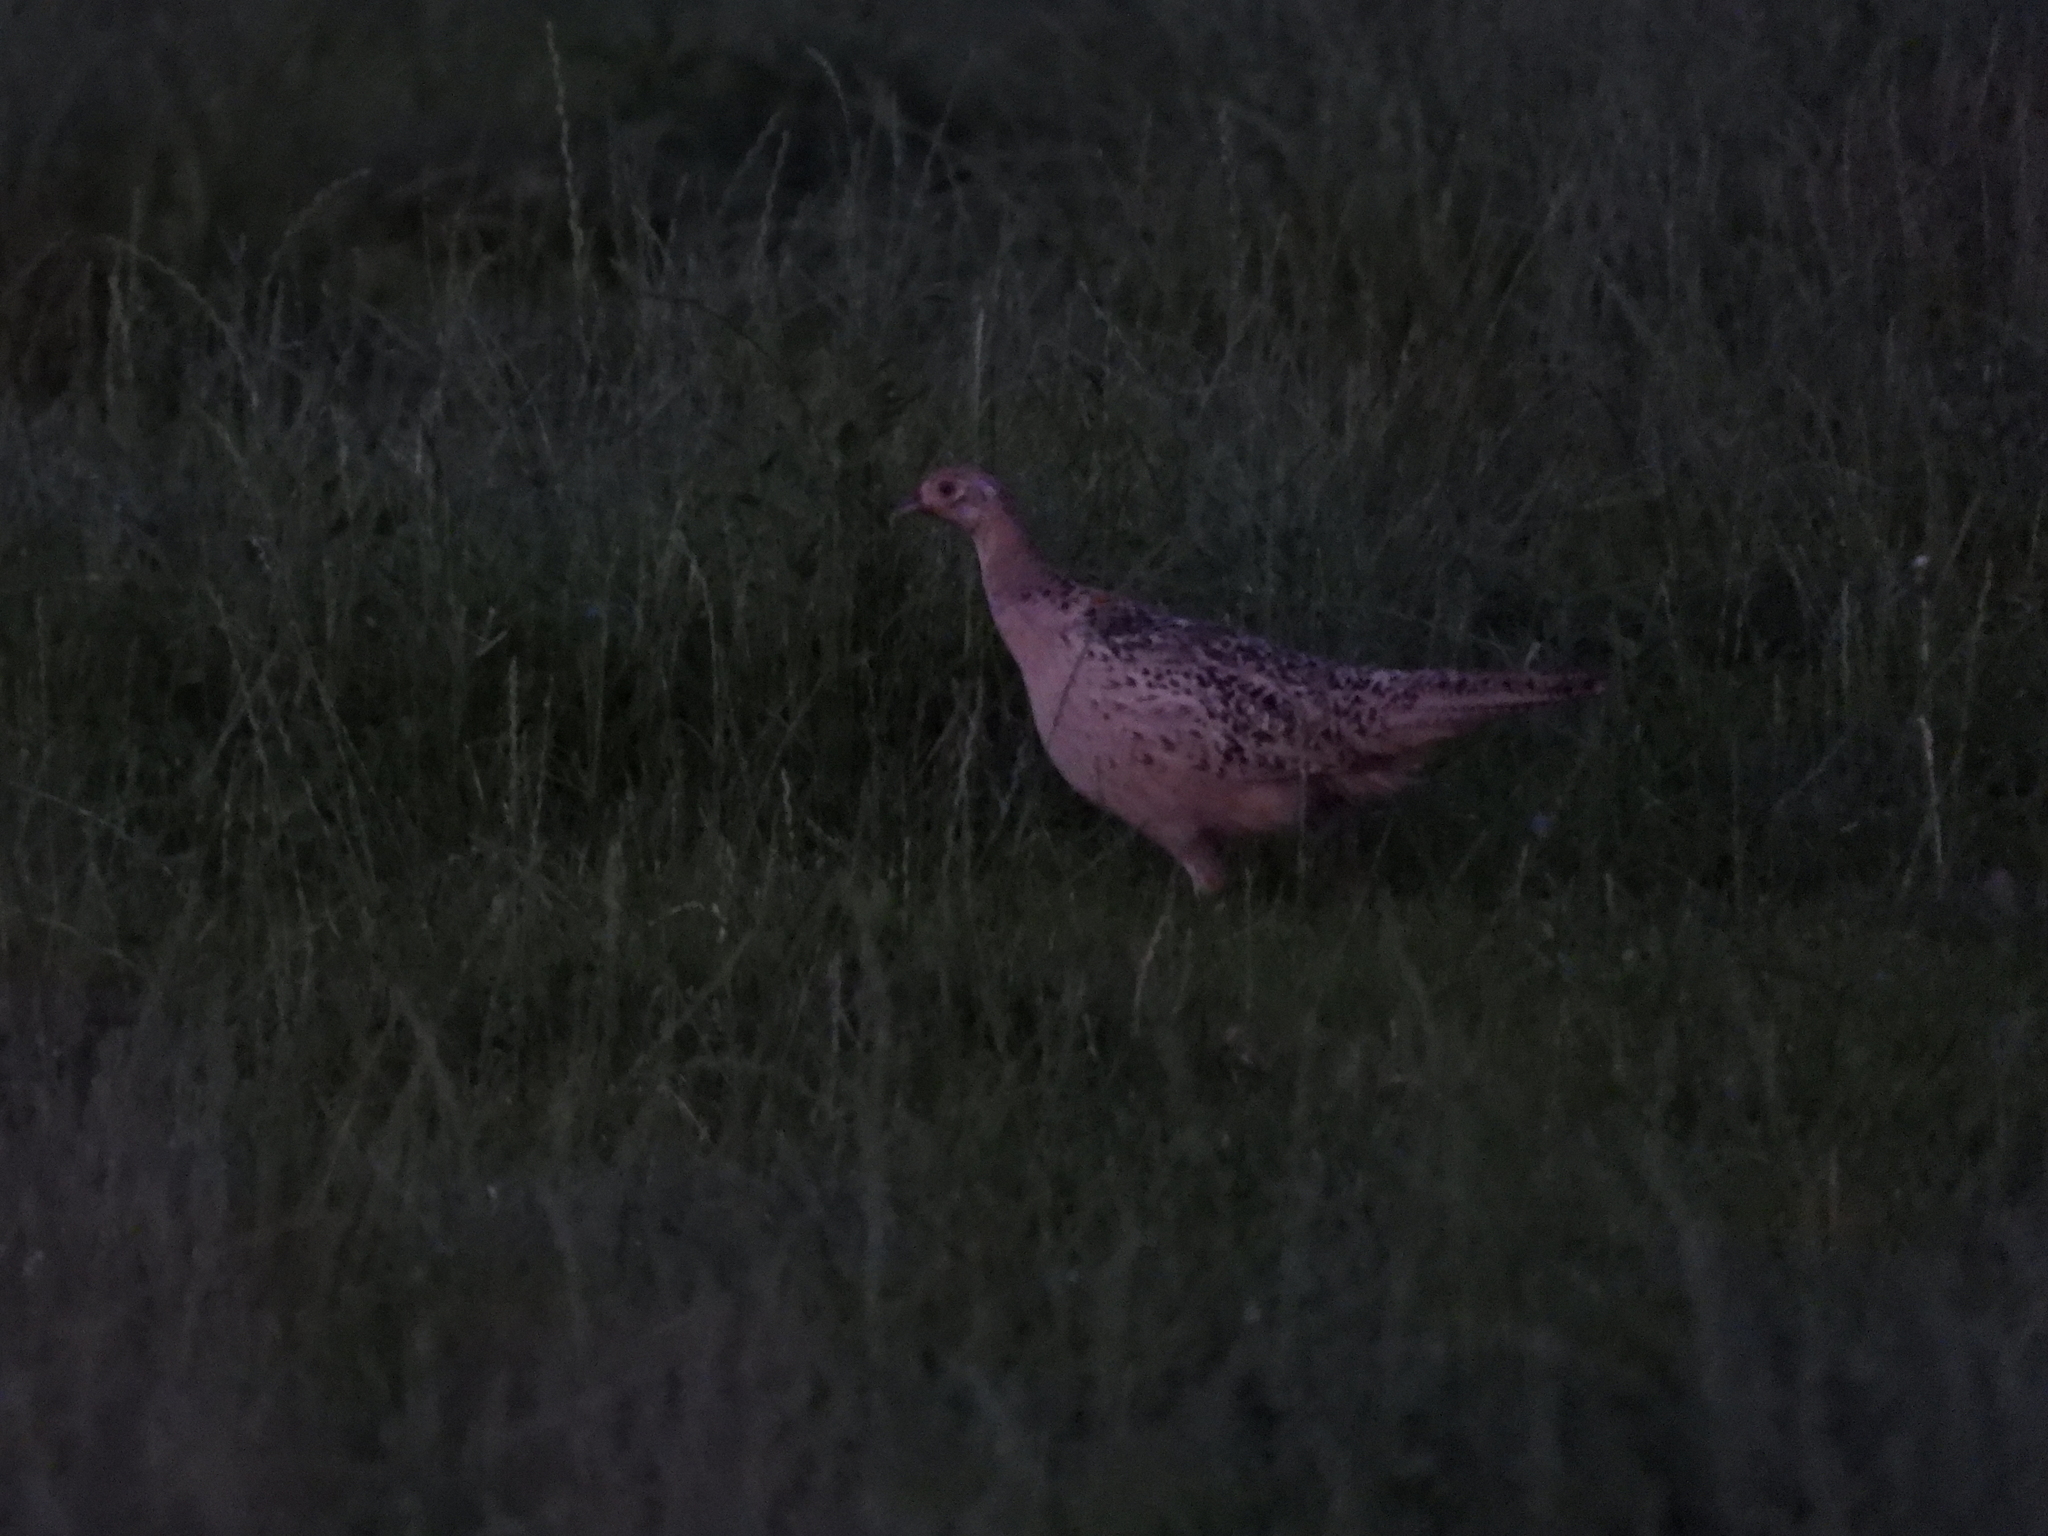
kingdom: Animalia
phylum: Chordata
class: Aves
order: Galliformes
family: Phasianidae
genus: Phasianus
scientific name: Phasianus colchicus
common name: Common pheasant
